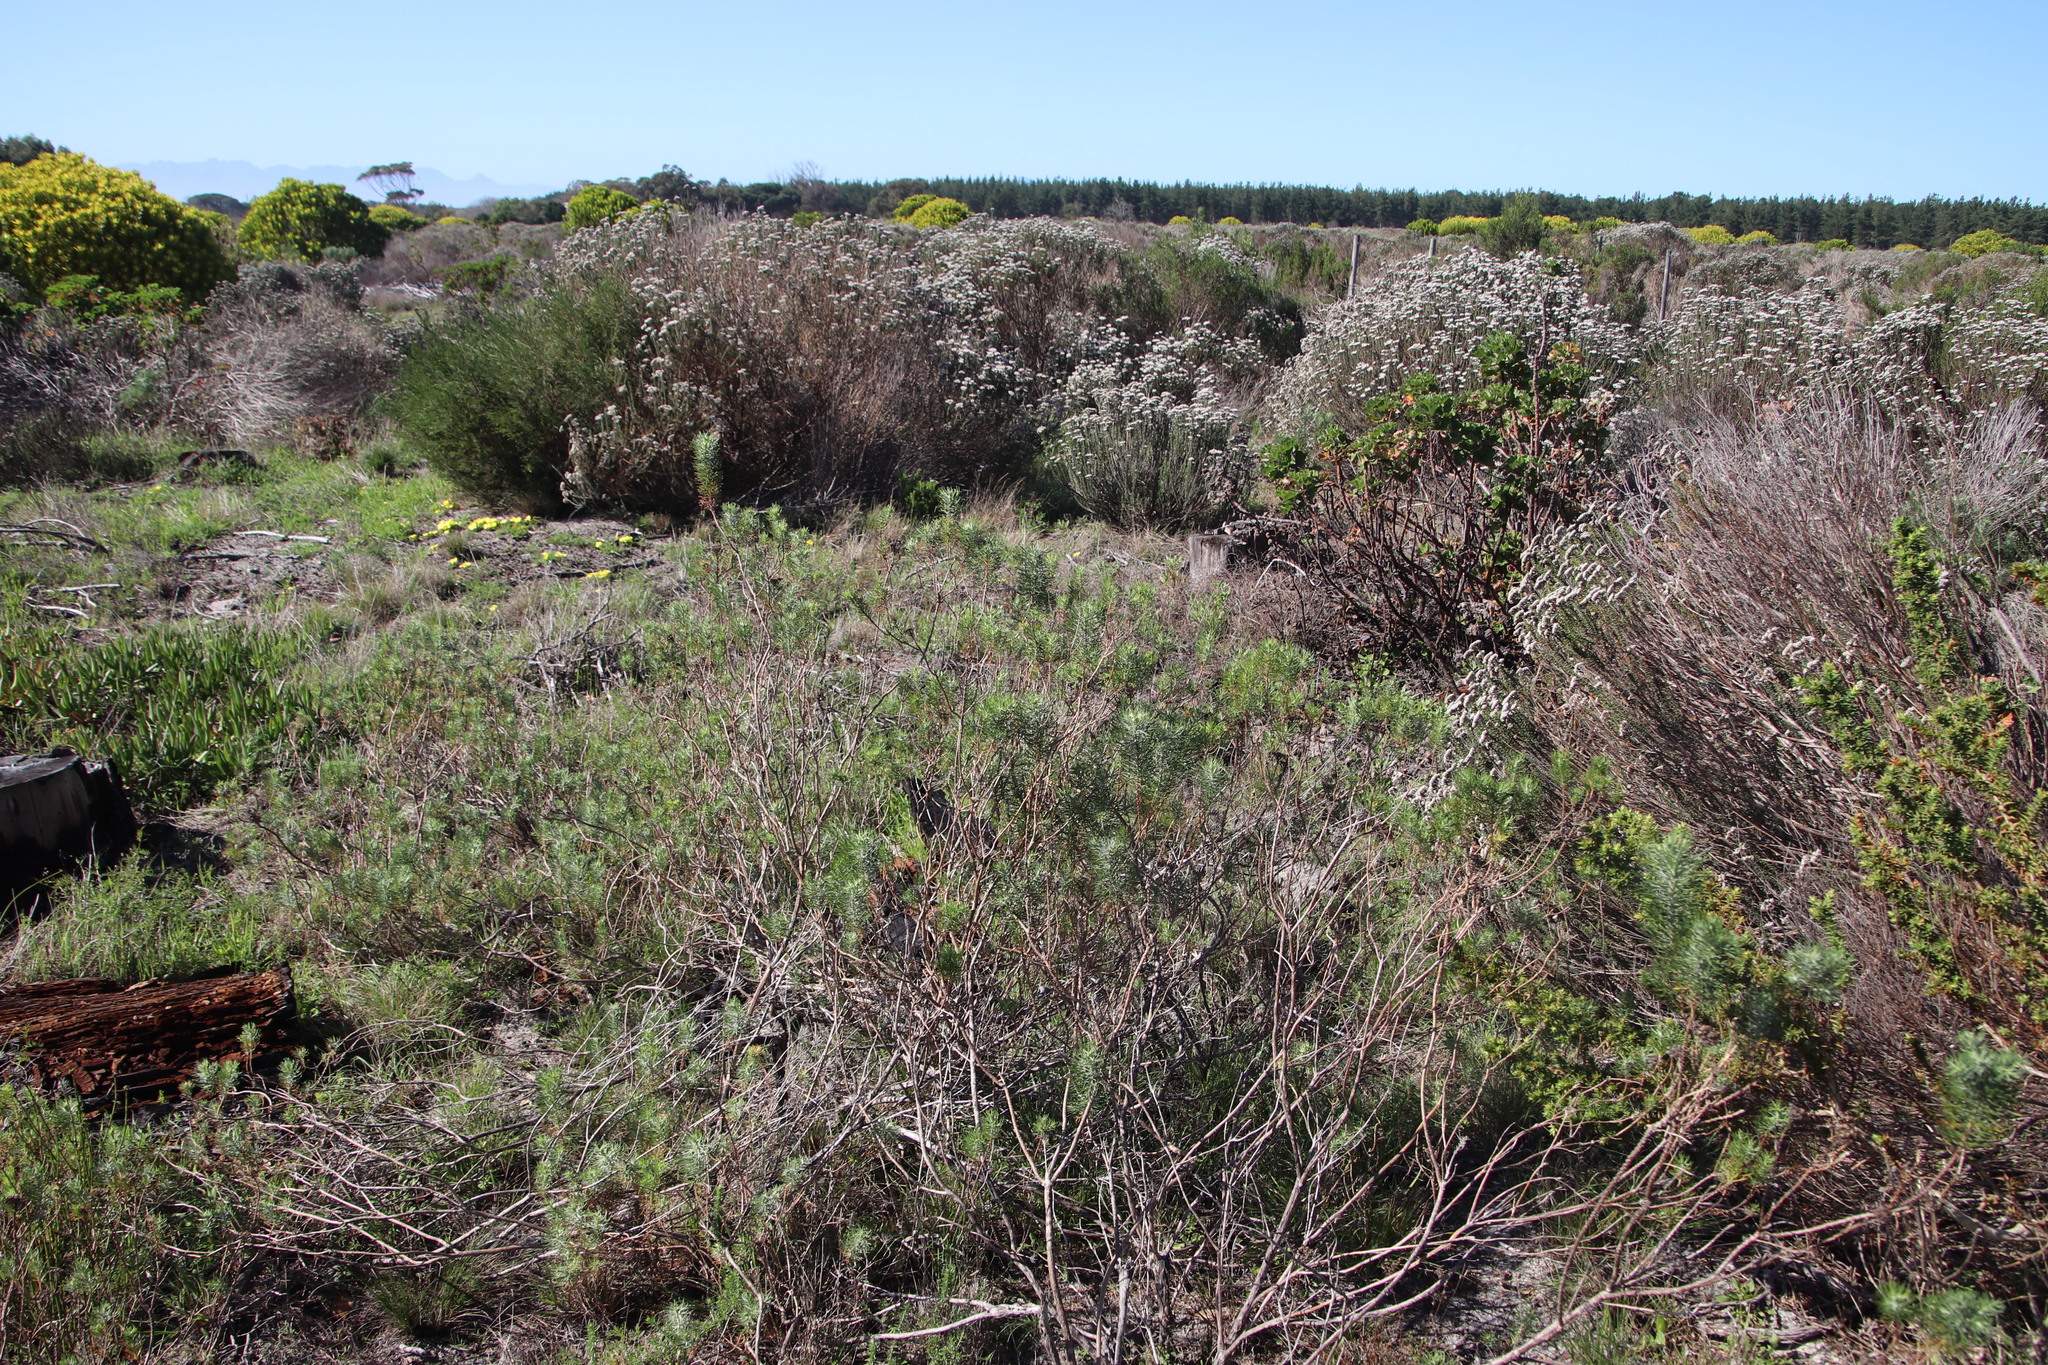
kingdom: Plantae
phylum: Tracheophyta
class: Magnoliopsida
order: Asterales
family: Asteraceae
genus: Athanasia
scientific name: Athanasia crithmifolia
